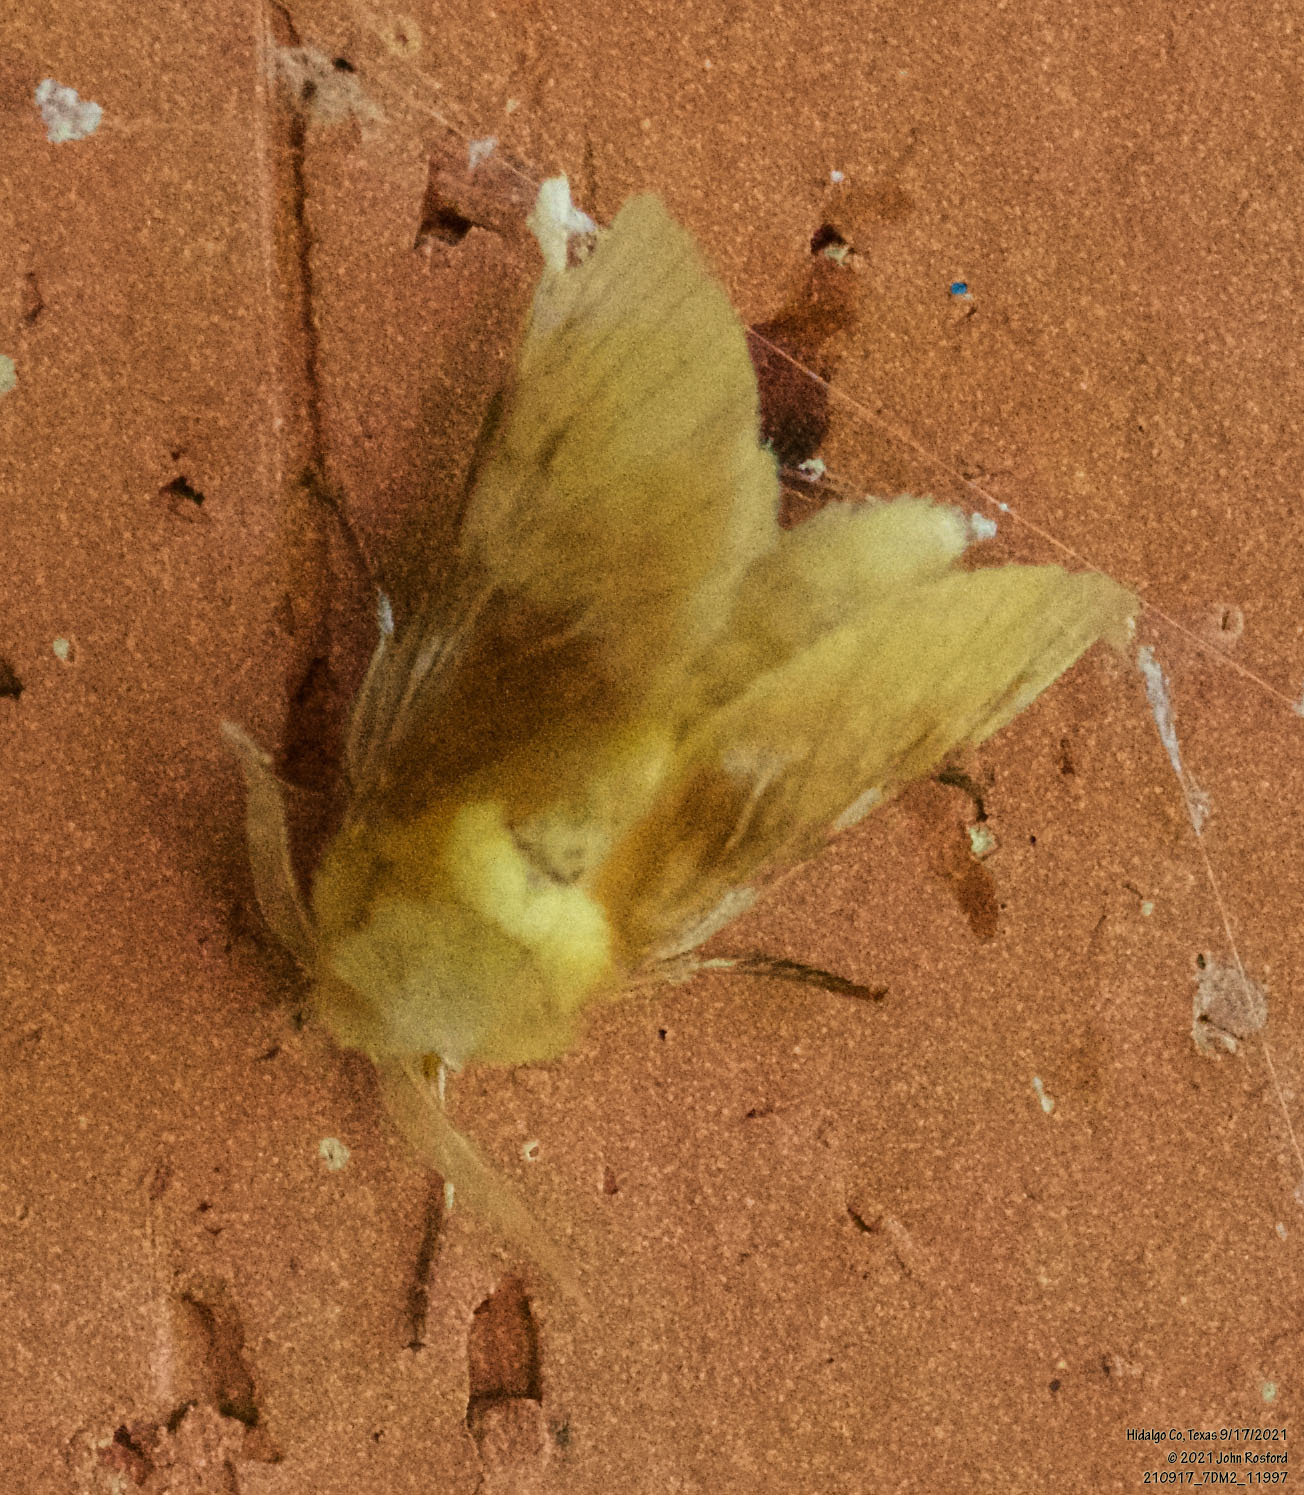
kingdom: Animalia
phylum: Arthropoda
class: Insecta
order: Lepidoptera
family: Megalopygidae
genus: Megalopyge
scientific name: Megalopyge opercularis
